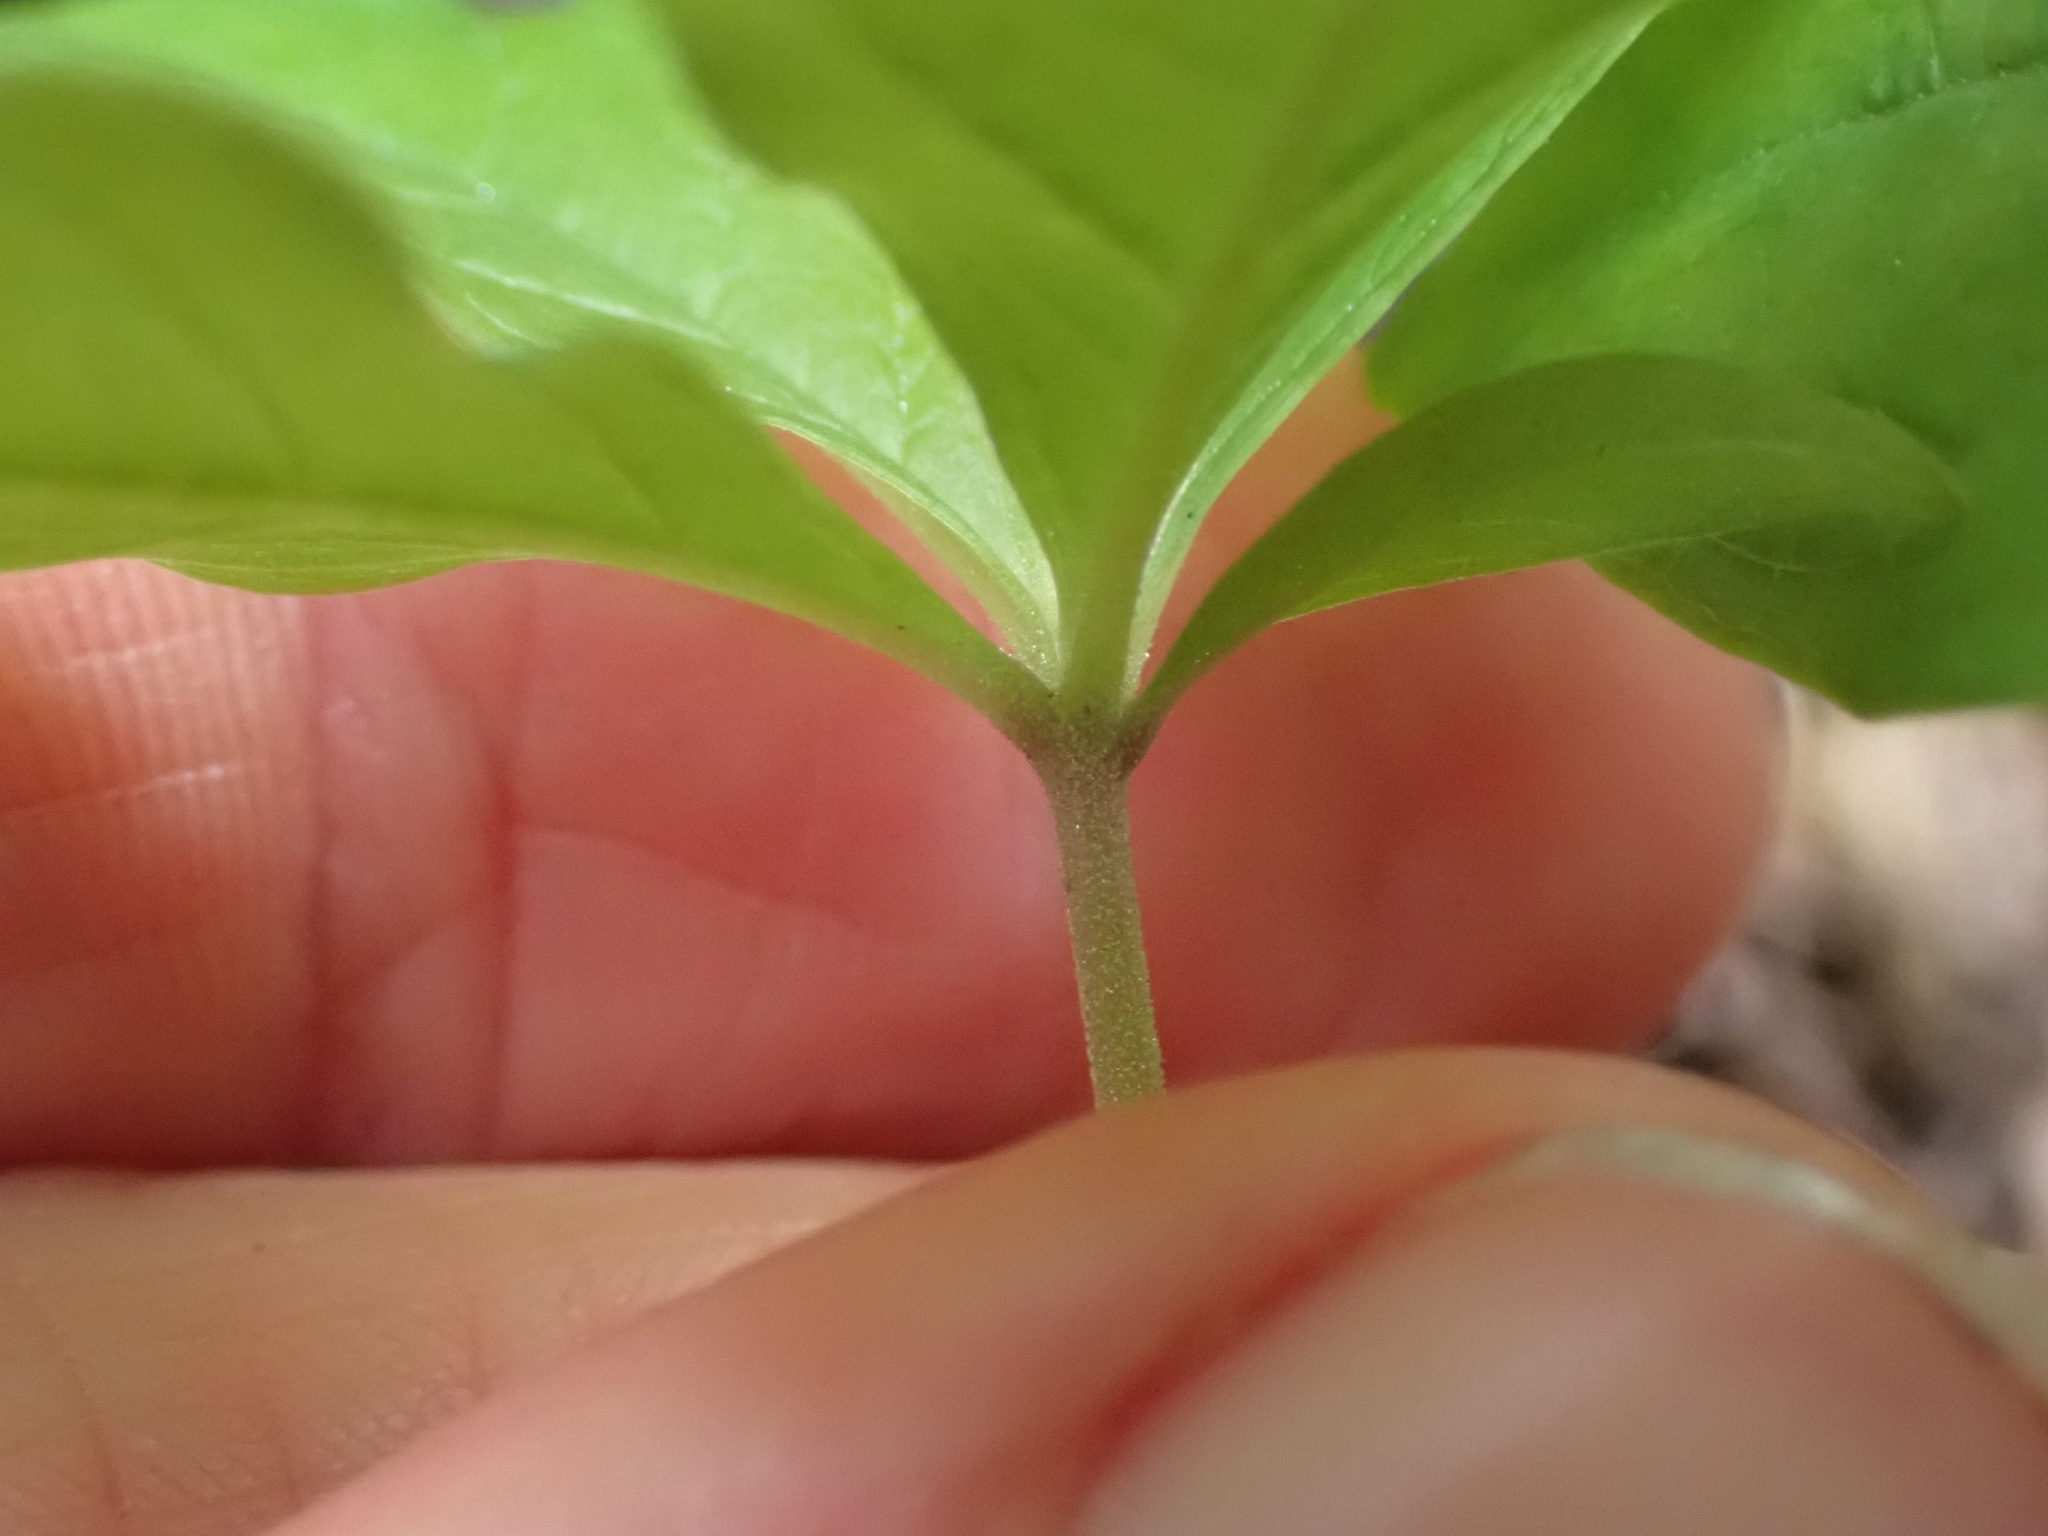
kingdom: Plantae
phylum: Tracheophyta
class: Magnoliopsida
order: Ericales
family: Primulaceae
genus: Lysimachia
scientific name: Lysimachia latifolia
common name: Pacific starflower
